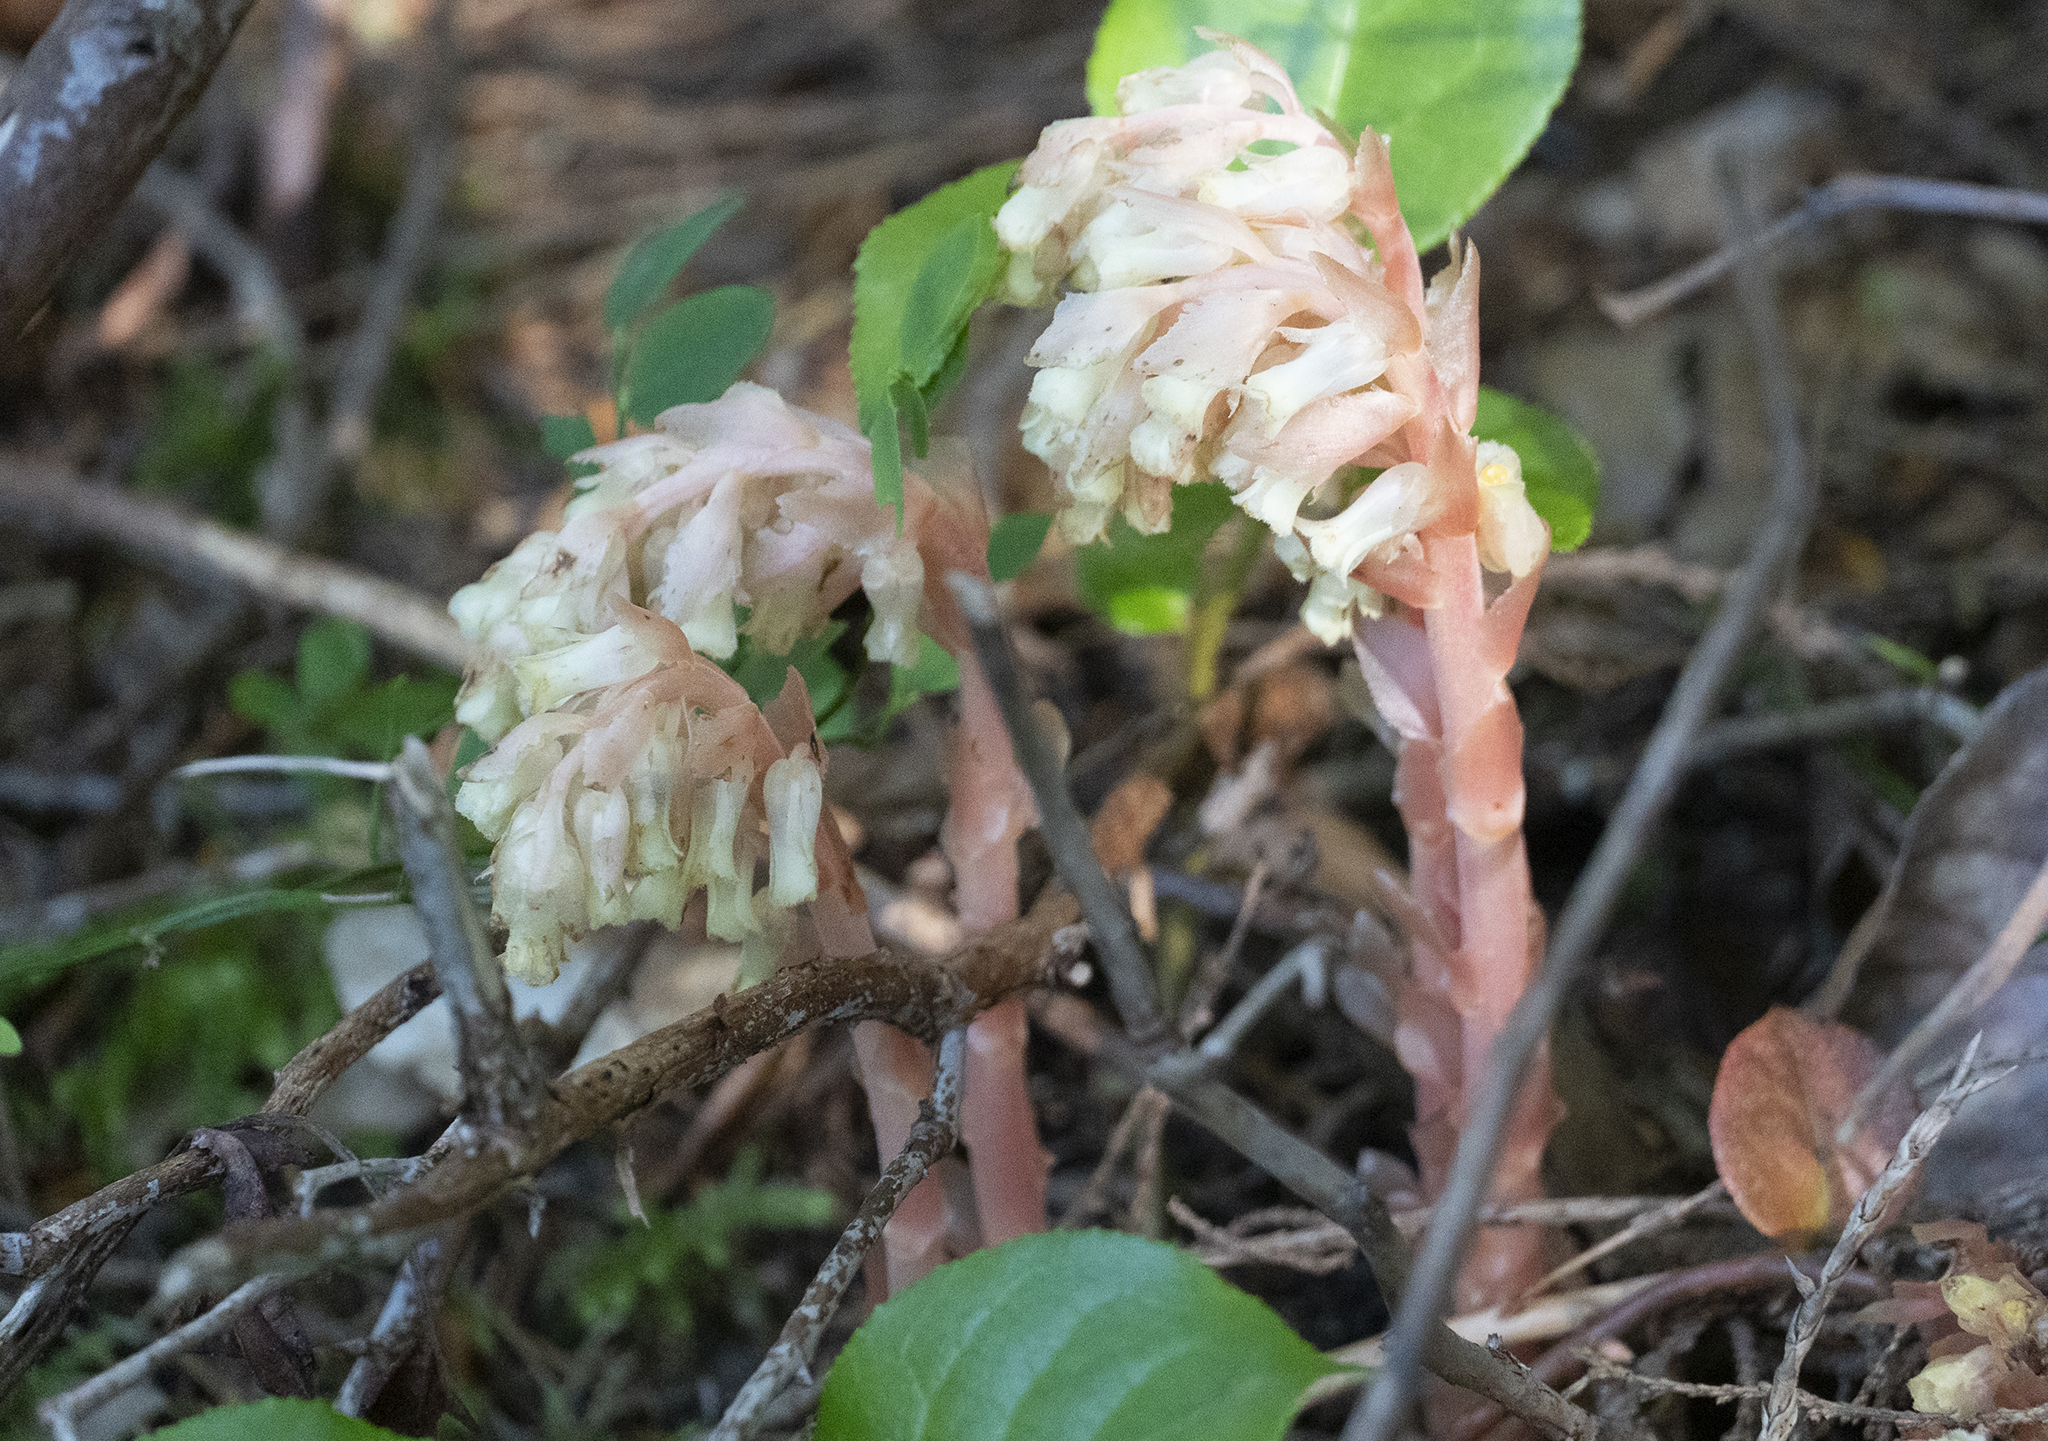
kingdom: Plantae
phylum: Tracheophyta
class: Magnoliopsida
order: Ericales
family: Ericaceae
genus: Hypopitys
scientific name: Hypopitys monotropa
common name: Yellow bird's-nest
